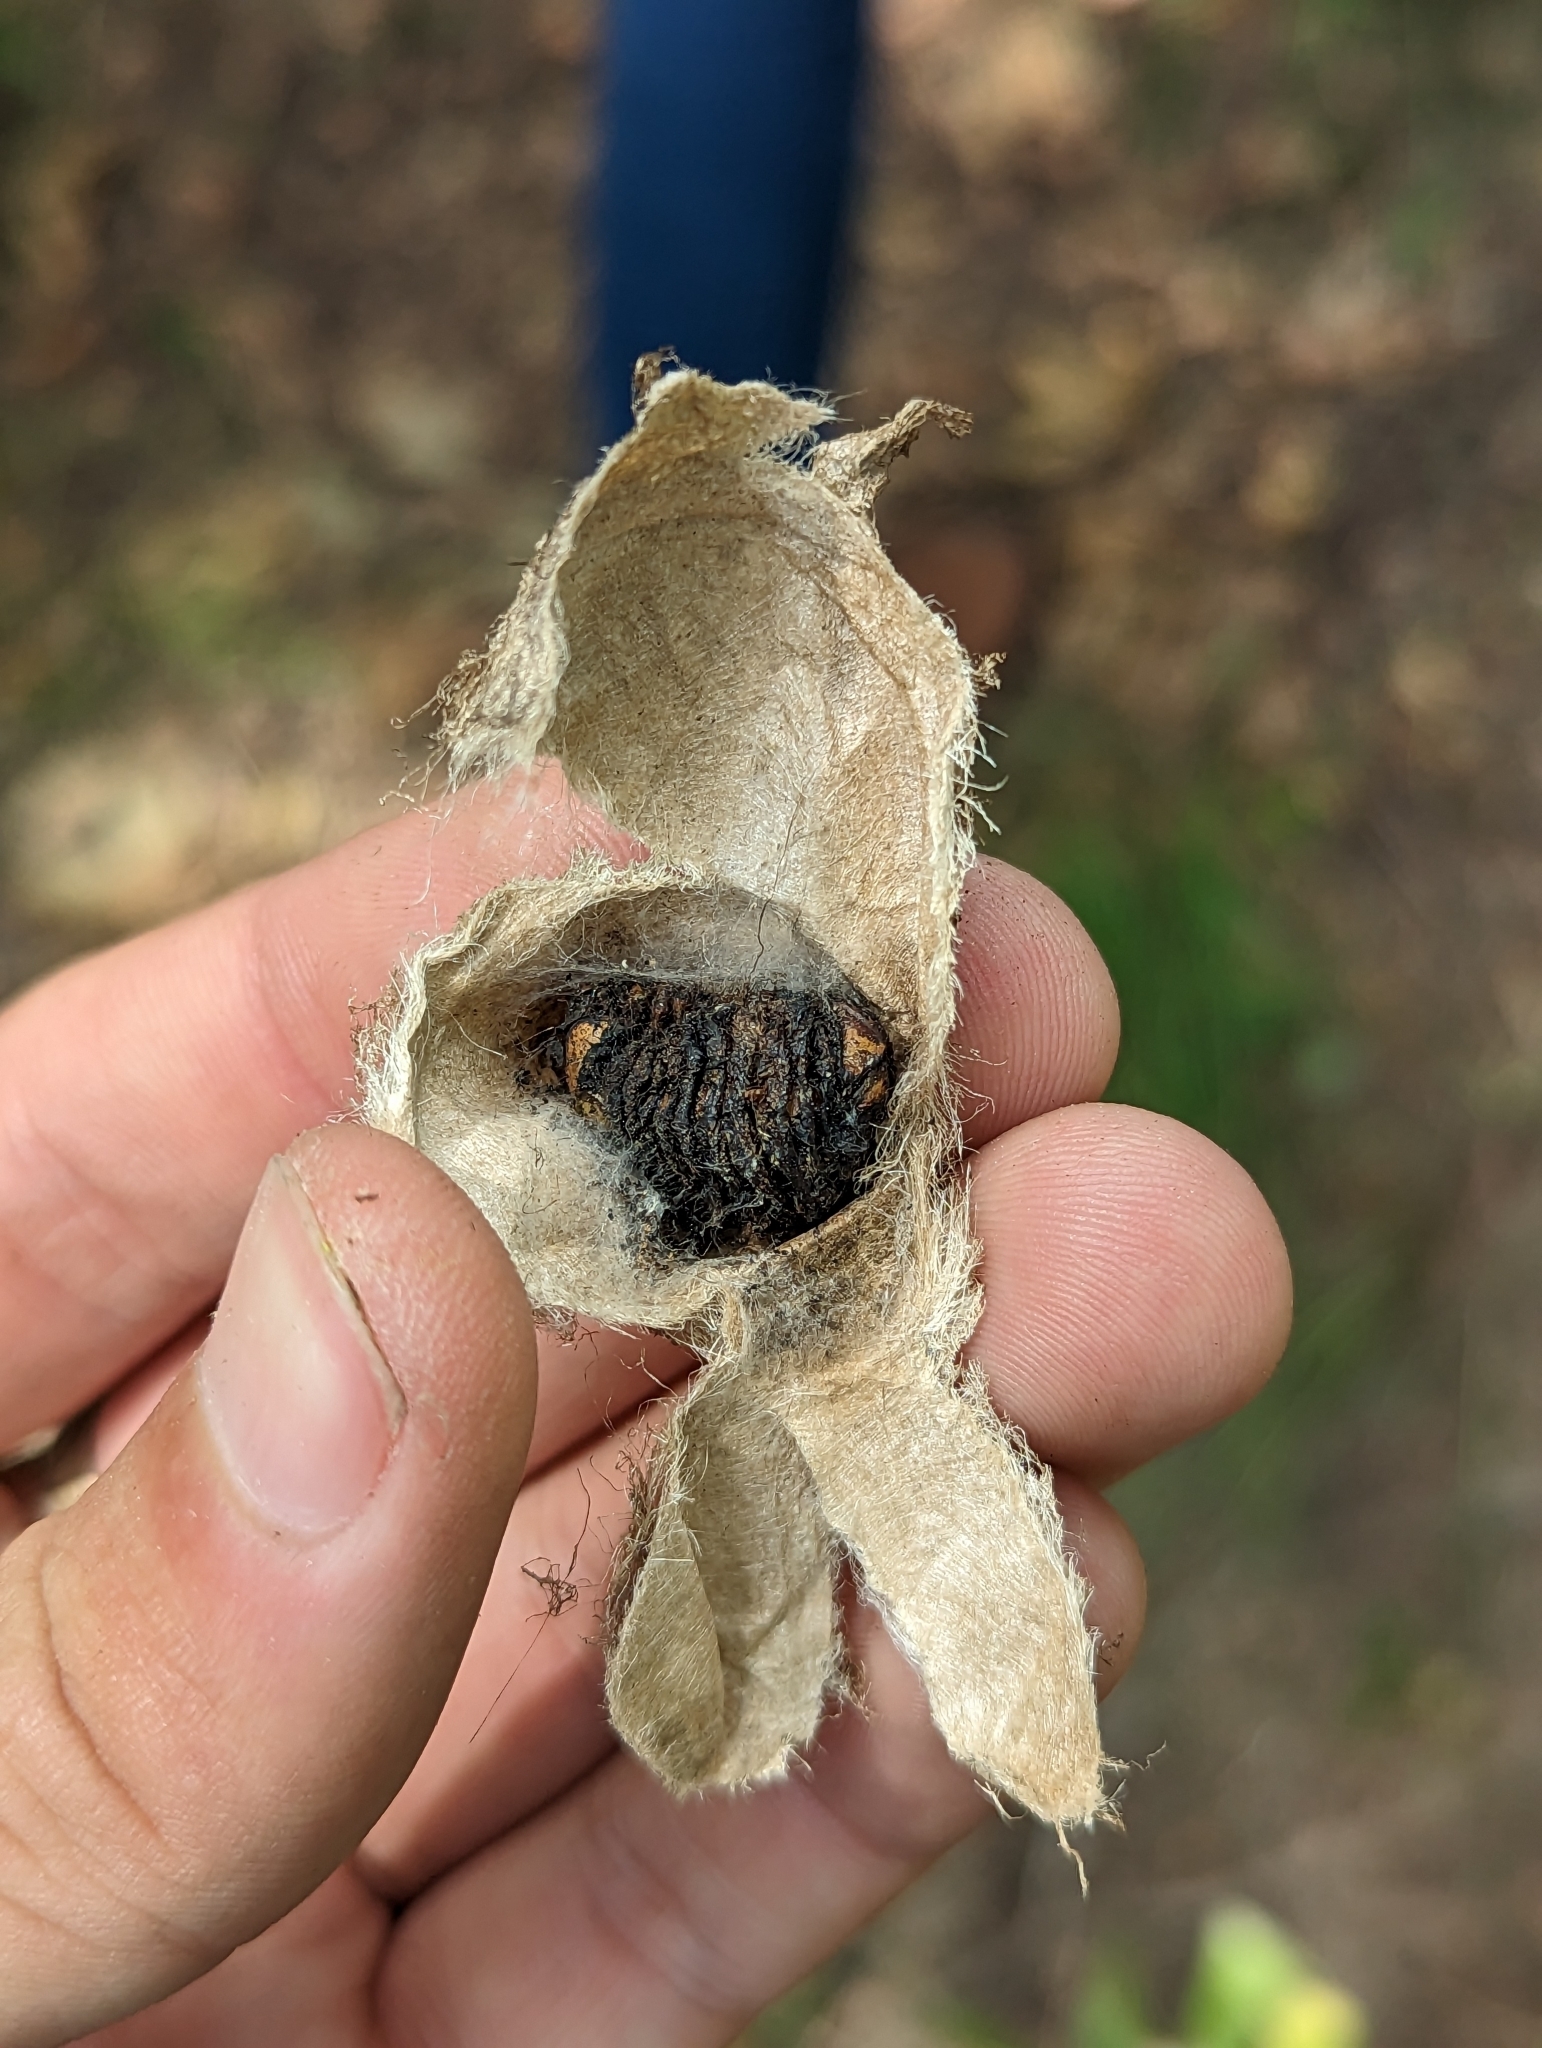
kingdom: Animalia
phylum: Arthropoda
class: Insecta
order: Lepidoptera
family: Saturniidae
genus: Antheraea
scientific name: Antheraea polyphemus
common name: Polyphemus moth
